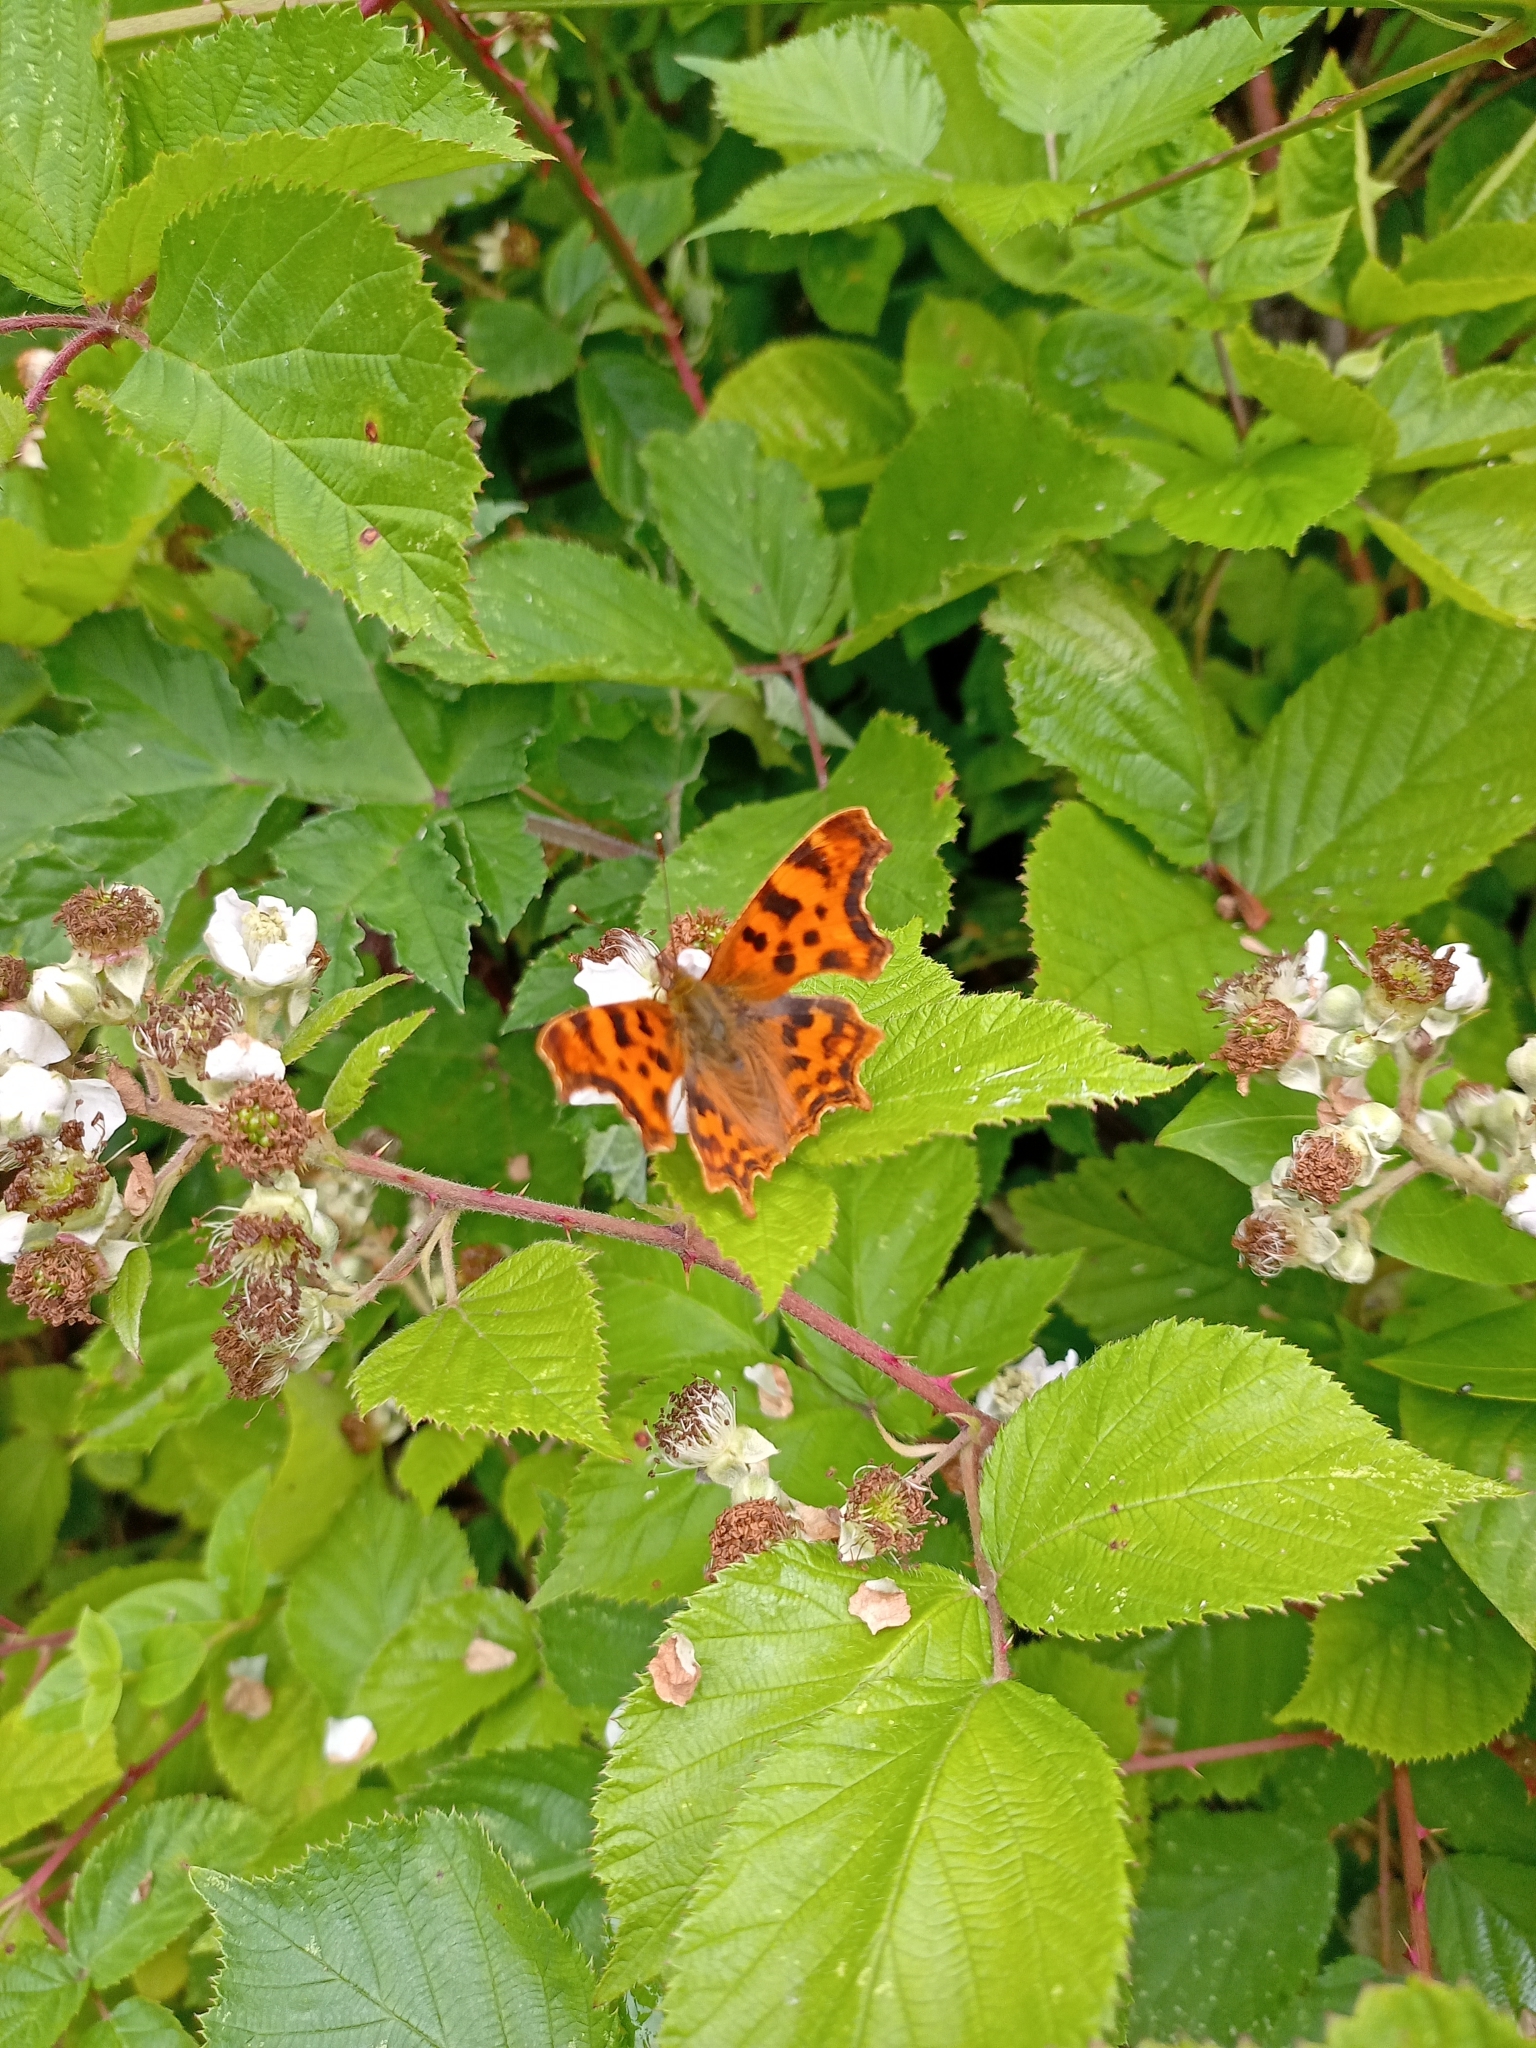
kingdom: Animalia
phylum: Arthropoda
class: Insecta
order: Lepidoptera
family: Nymphalidae
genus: Polygonia
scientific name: Polygonia c-album
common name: Comma
